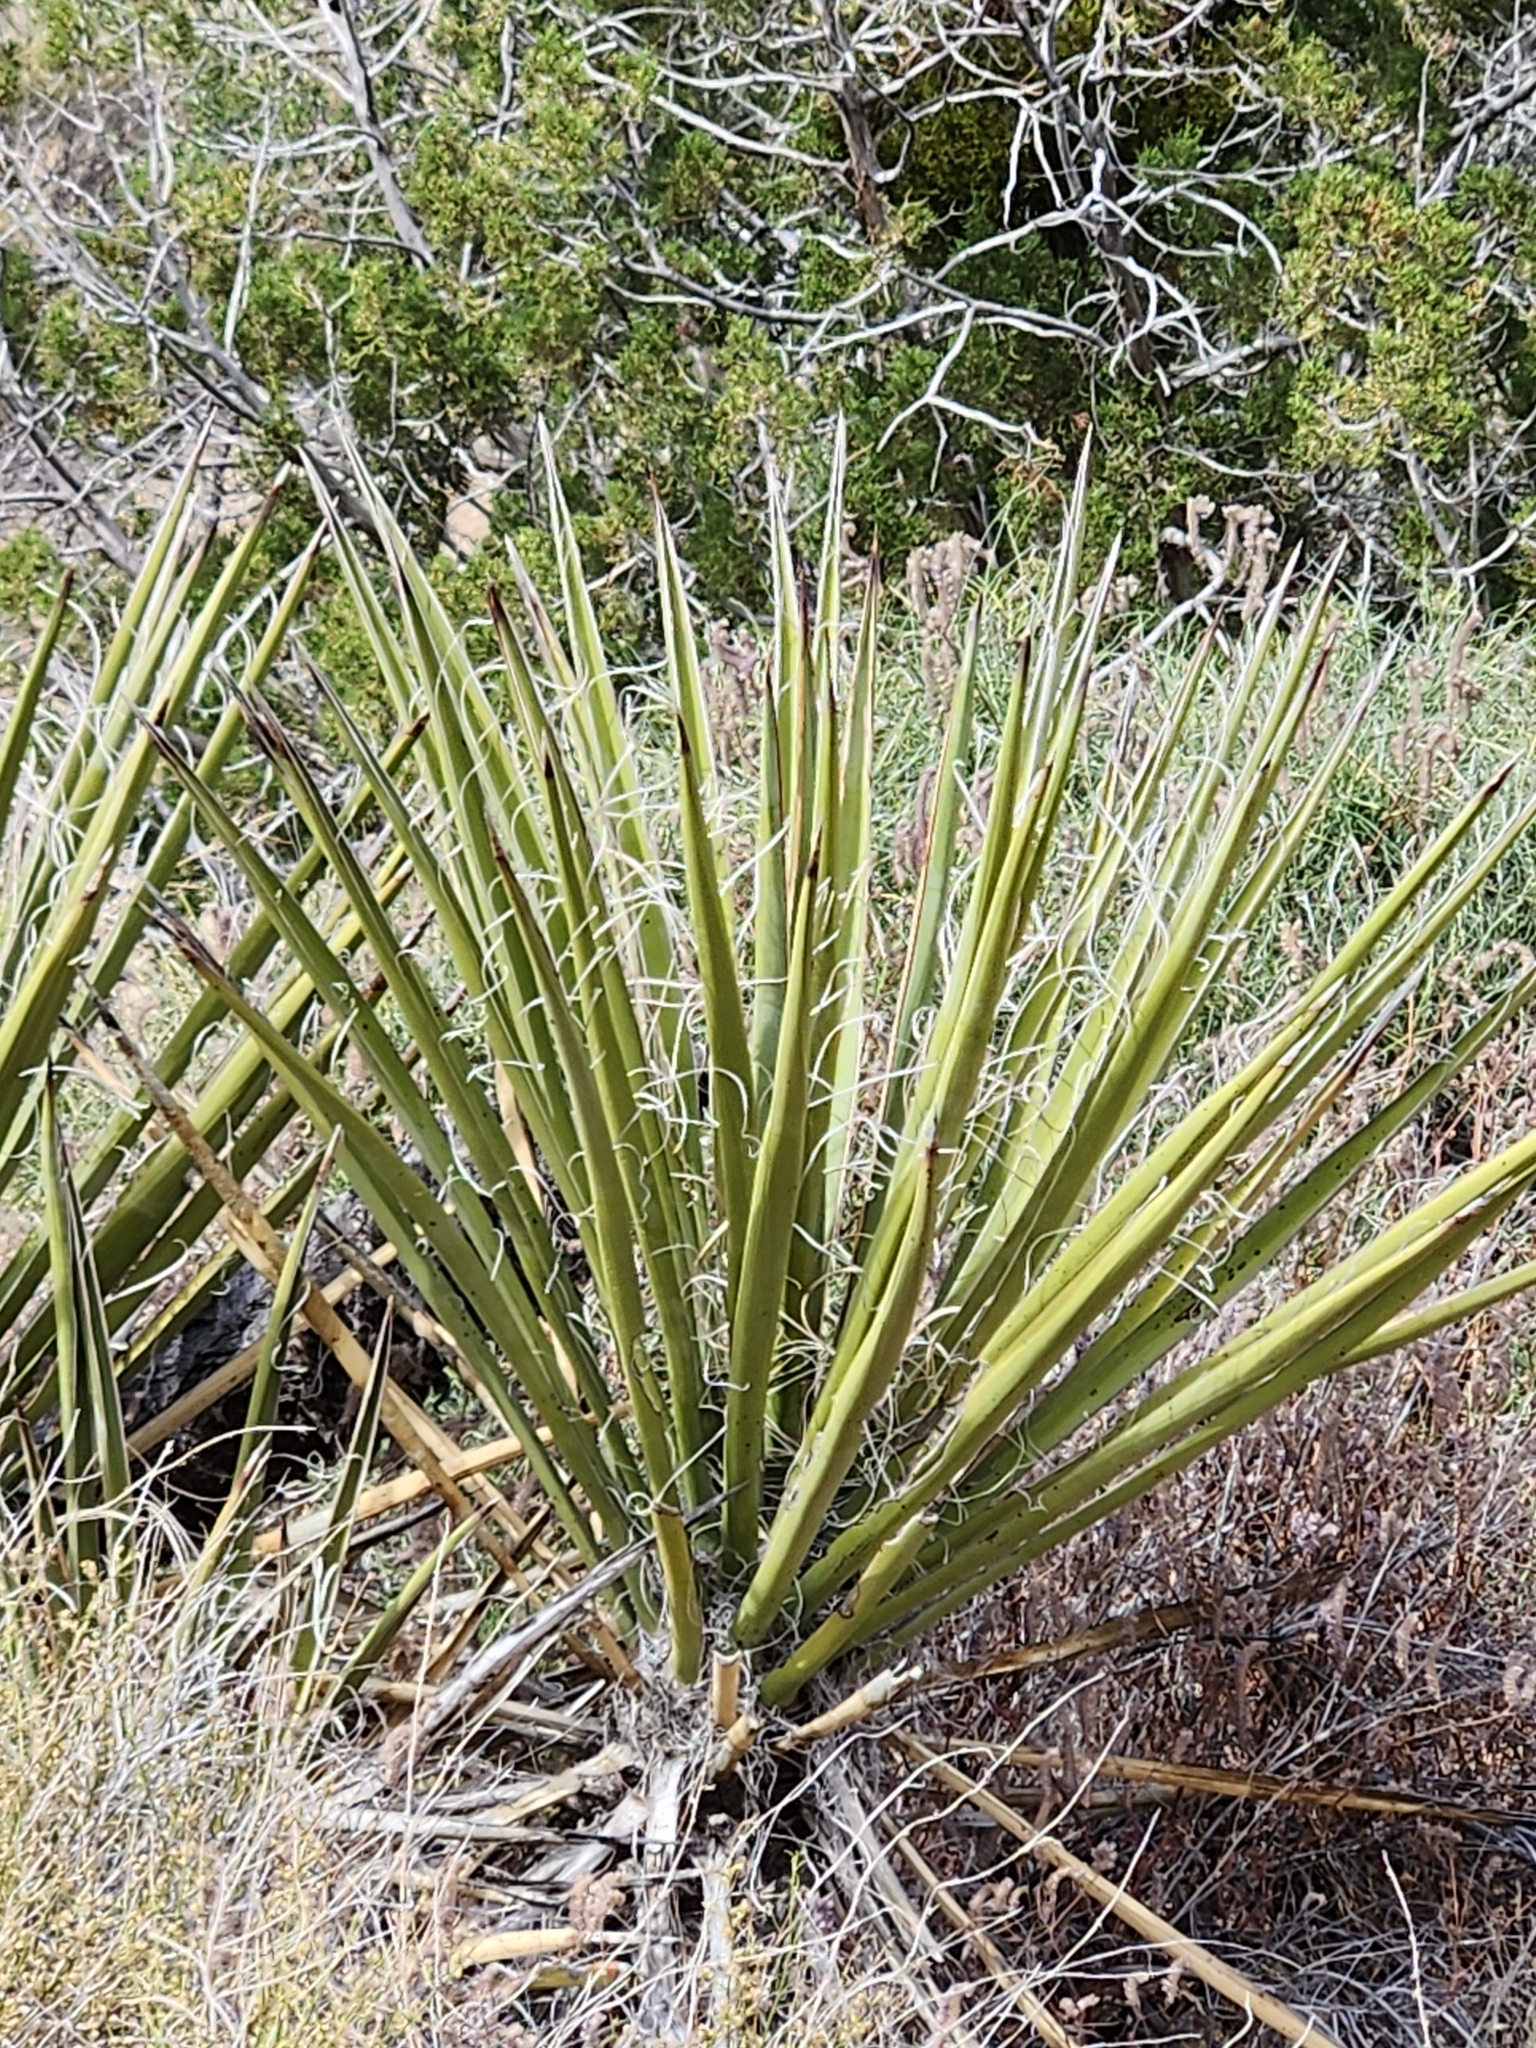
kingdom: Plantae
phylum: Tracheophyta
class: Liliopsida
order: Asparagales
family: Asparagaceae
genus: Yucca
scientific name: Yucca schidigera
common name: Mojave yucca
